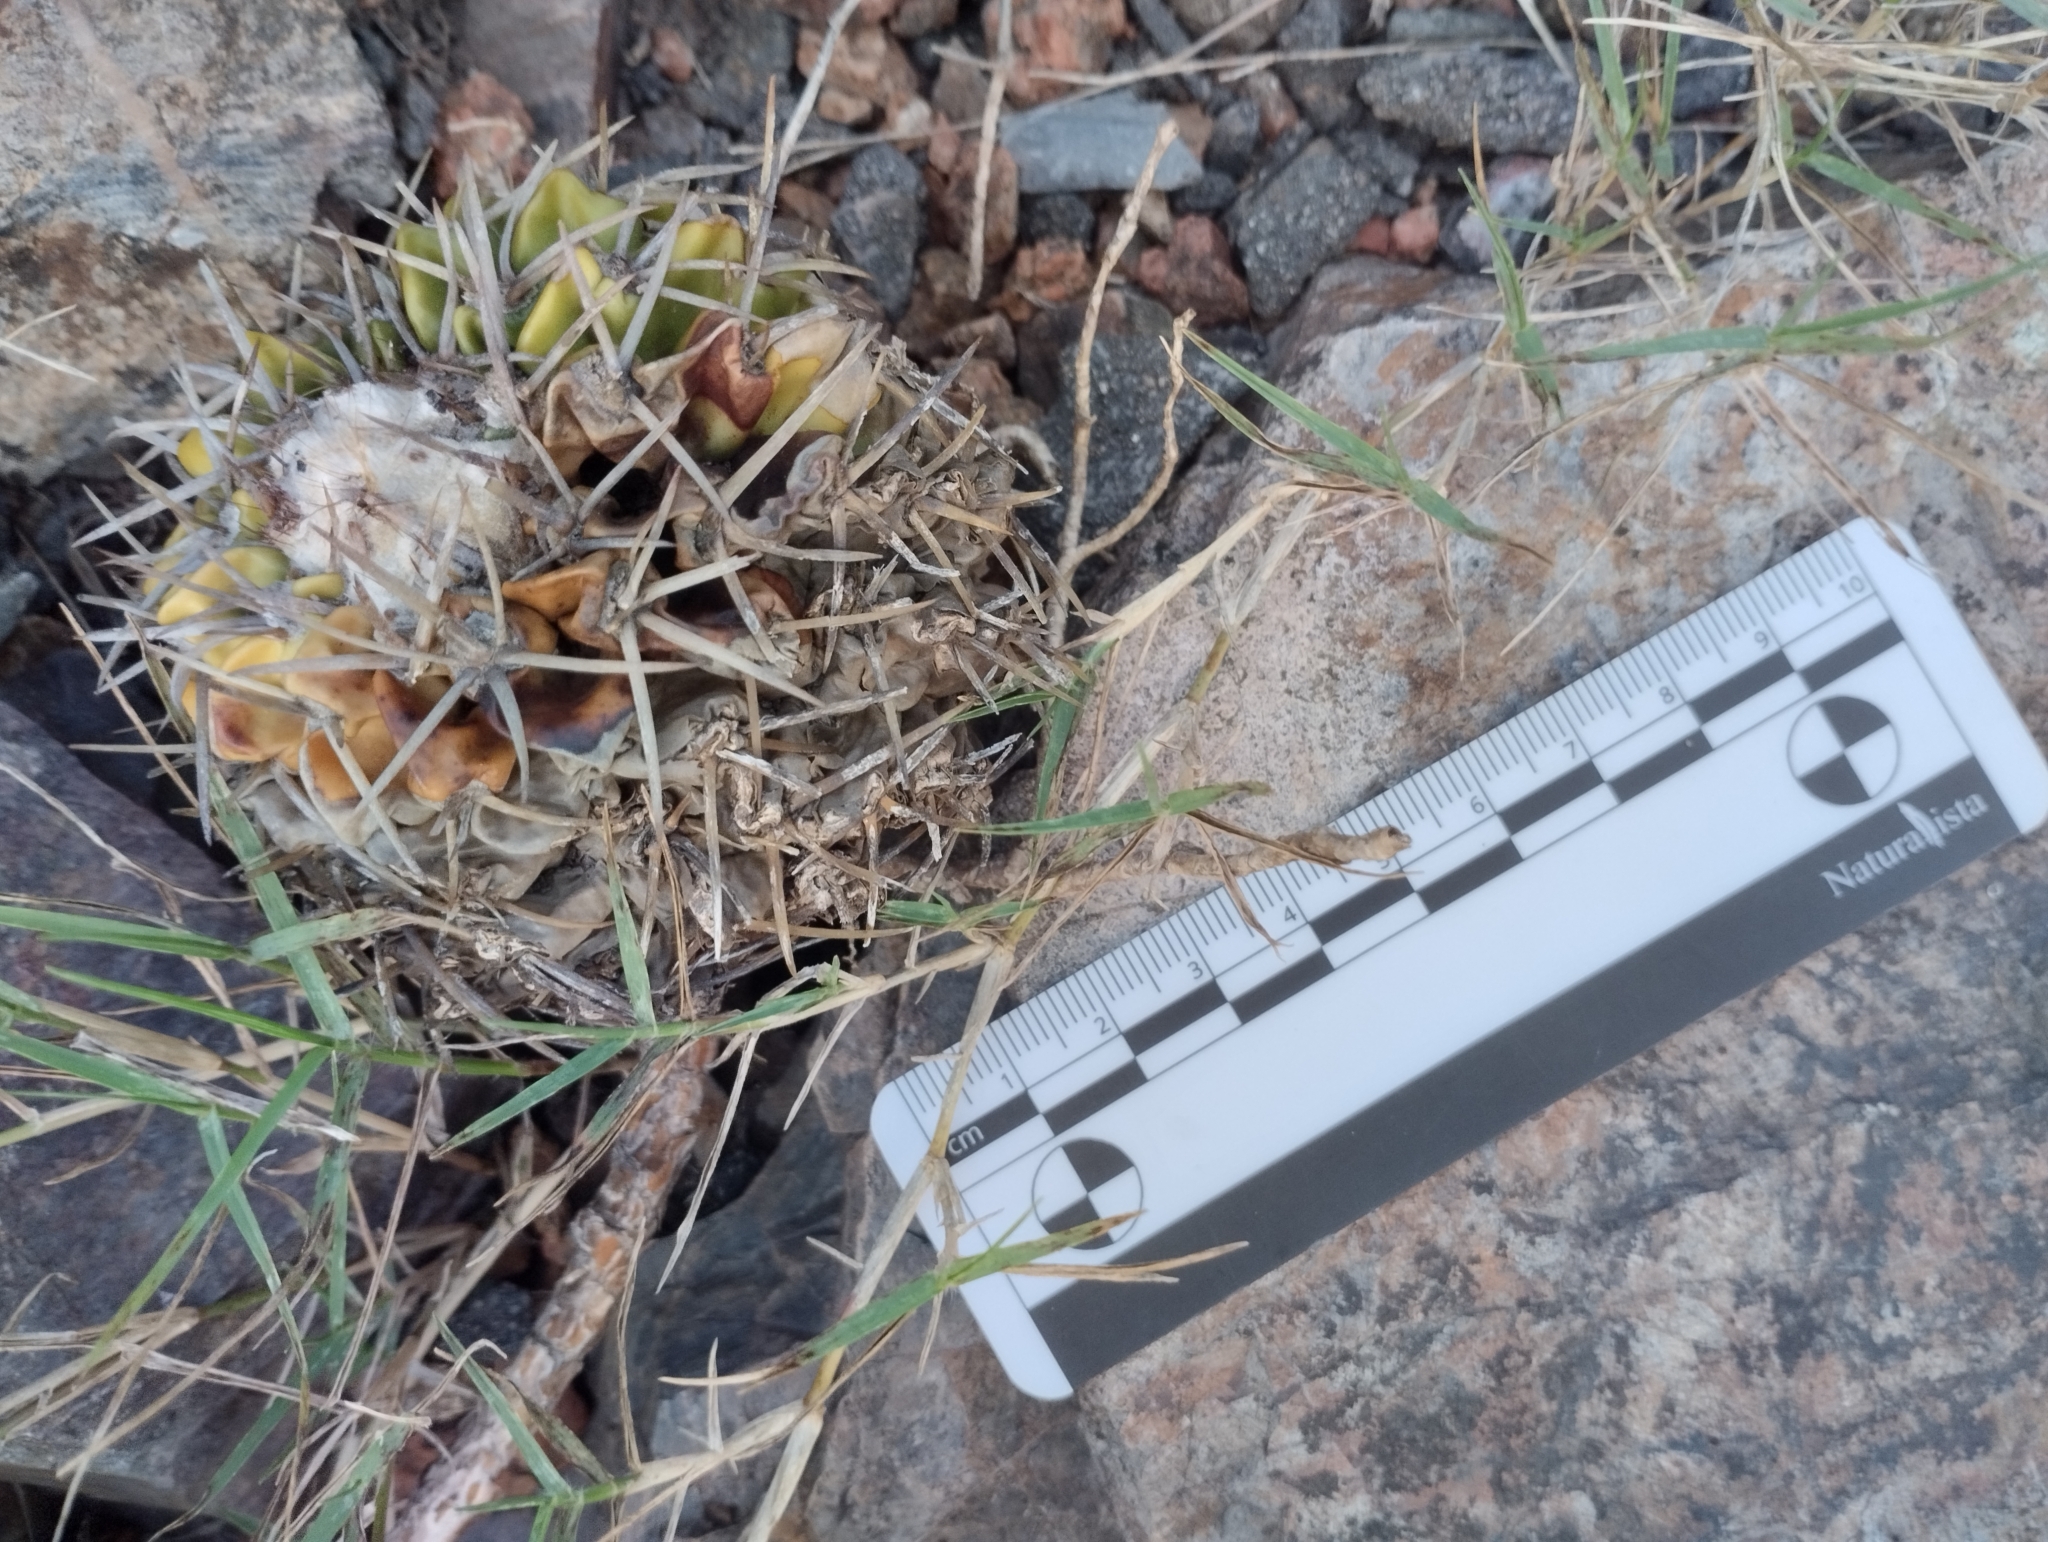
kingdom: Plantae
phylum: Tracheophyta
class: Magnoliopsida
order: Caryophyllales
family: Cactaceae
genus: Parodia
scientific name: Parodia erinacea
